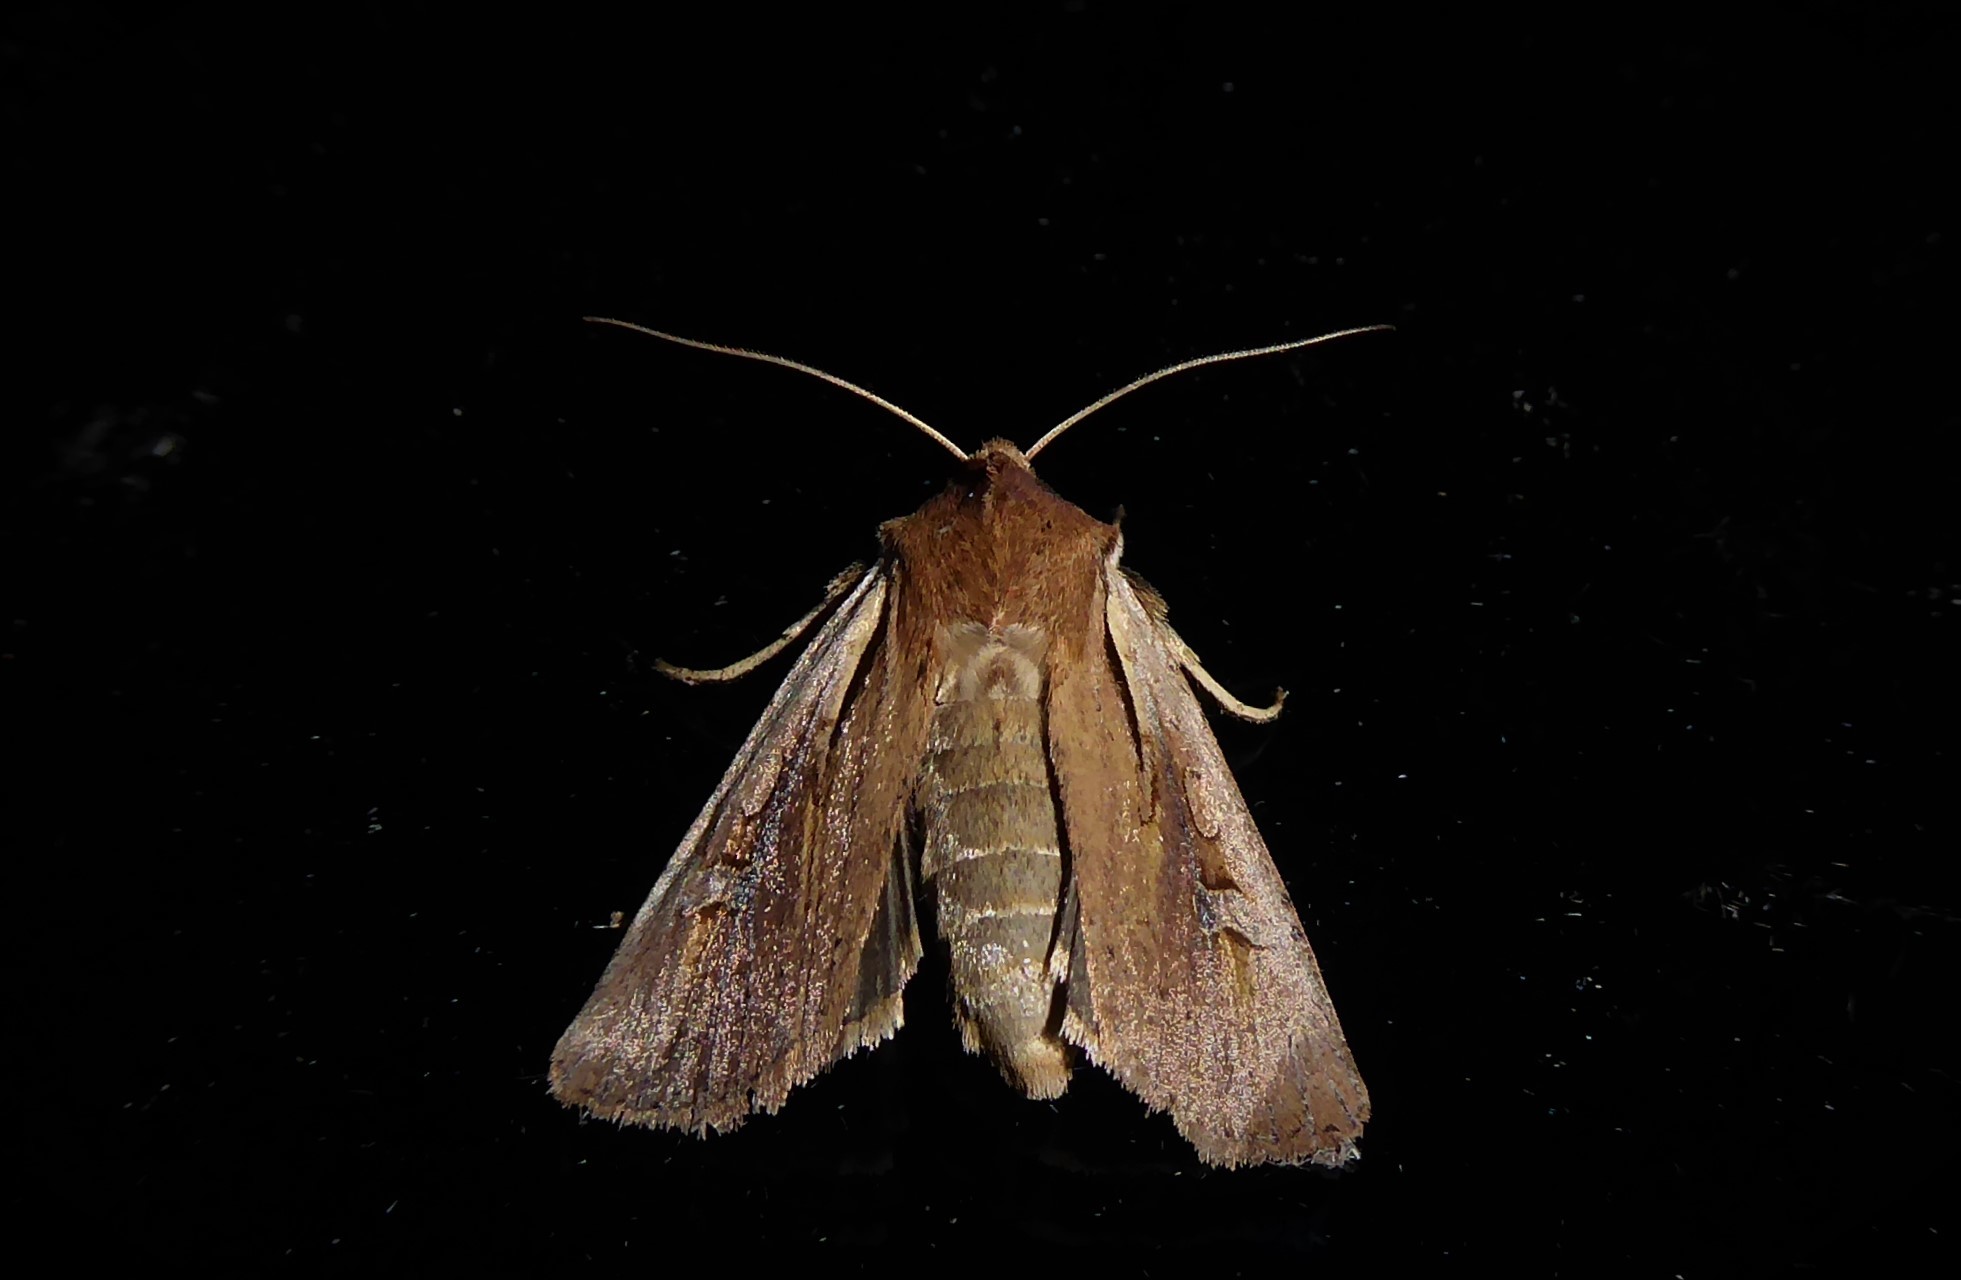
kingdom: Animalia
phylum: Arthropoda
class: Insecta
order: Lepidoptera
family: Noctuidae
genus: Ichneutica
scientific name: Ichneutica atristriga
